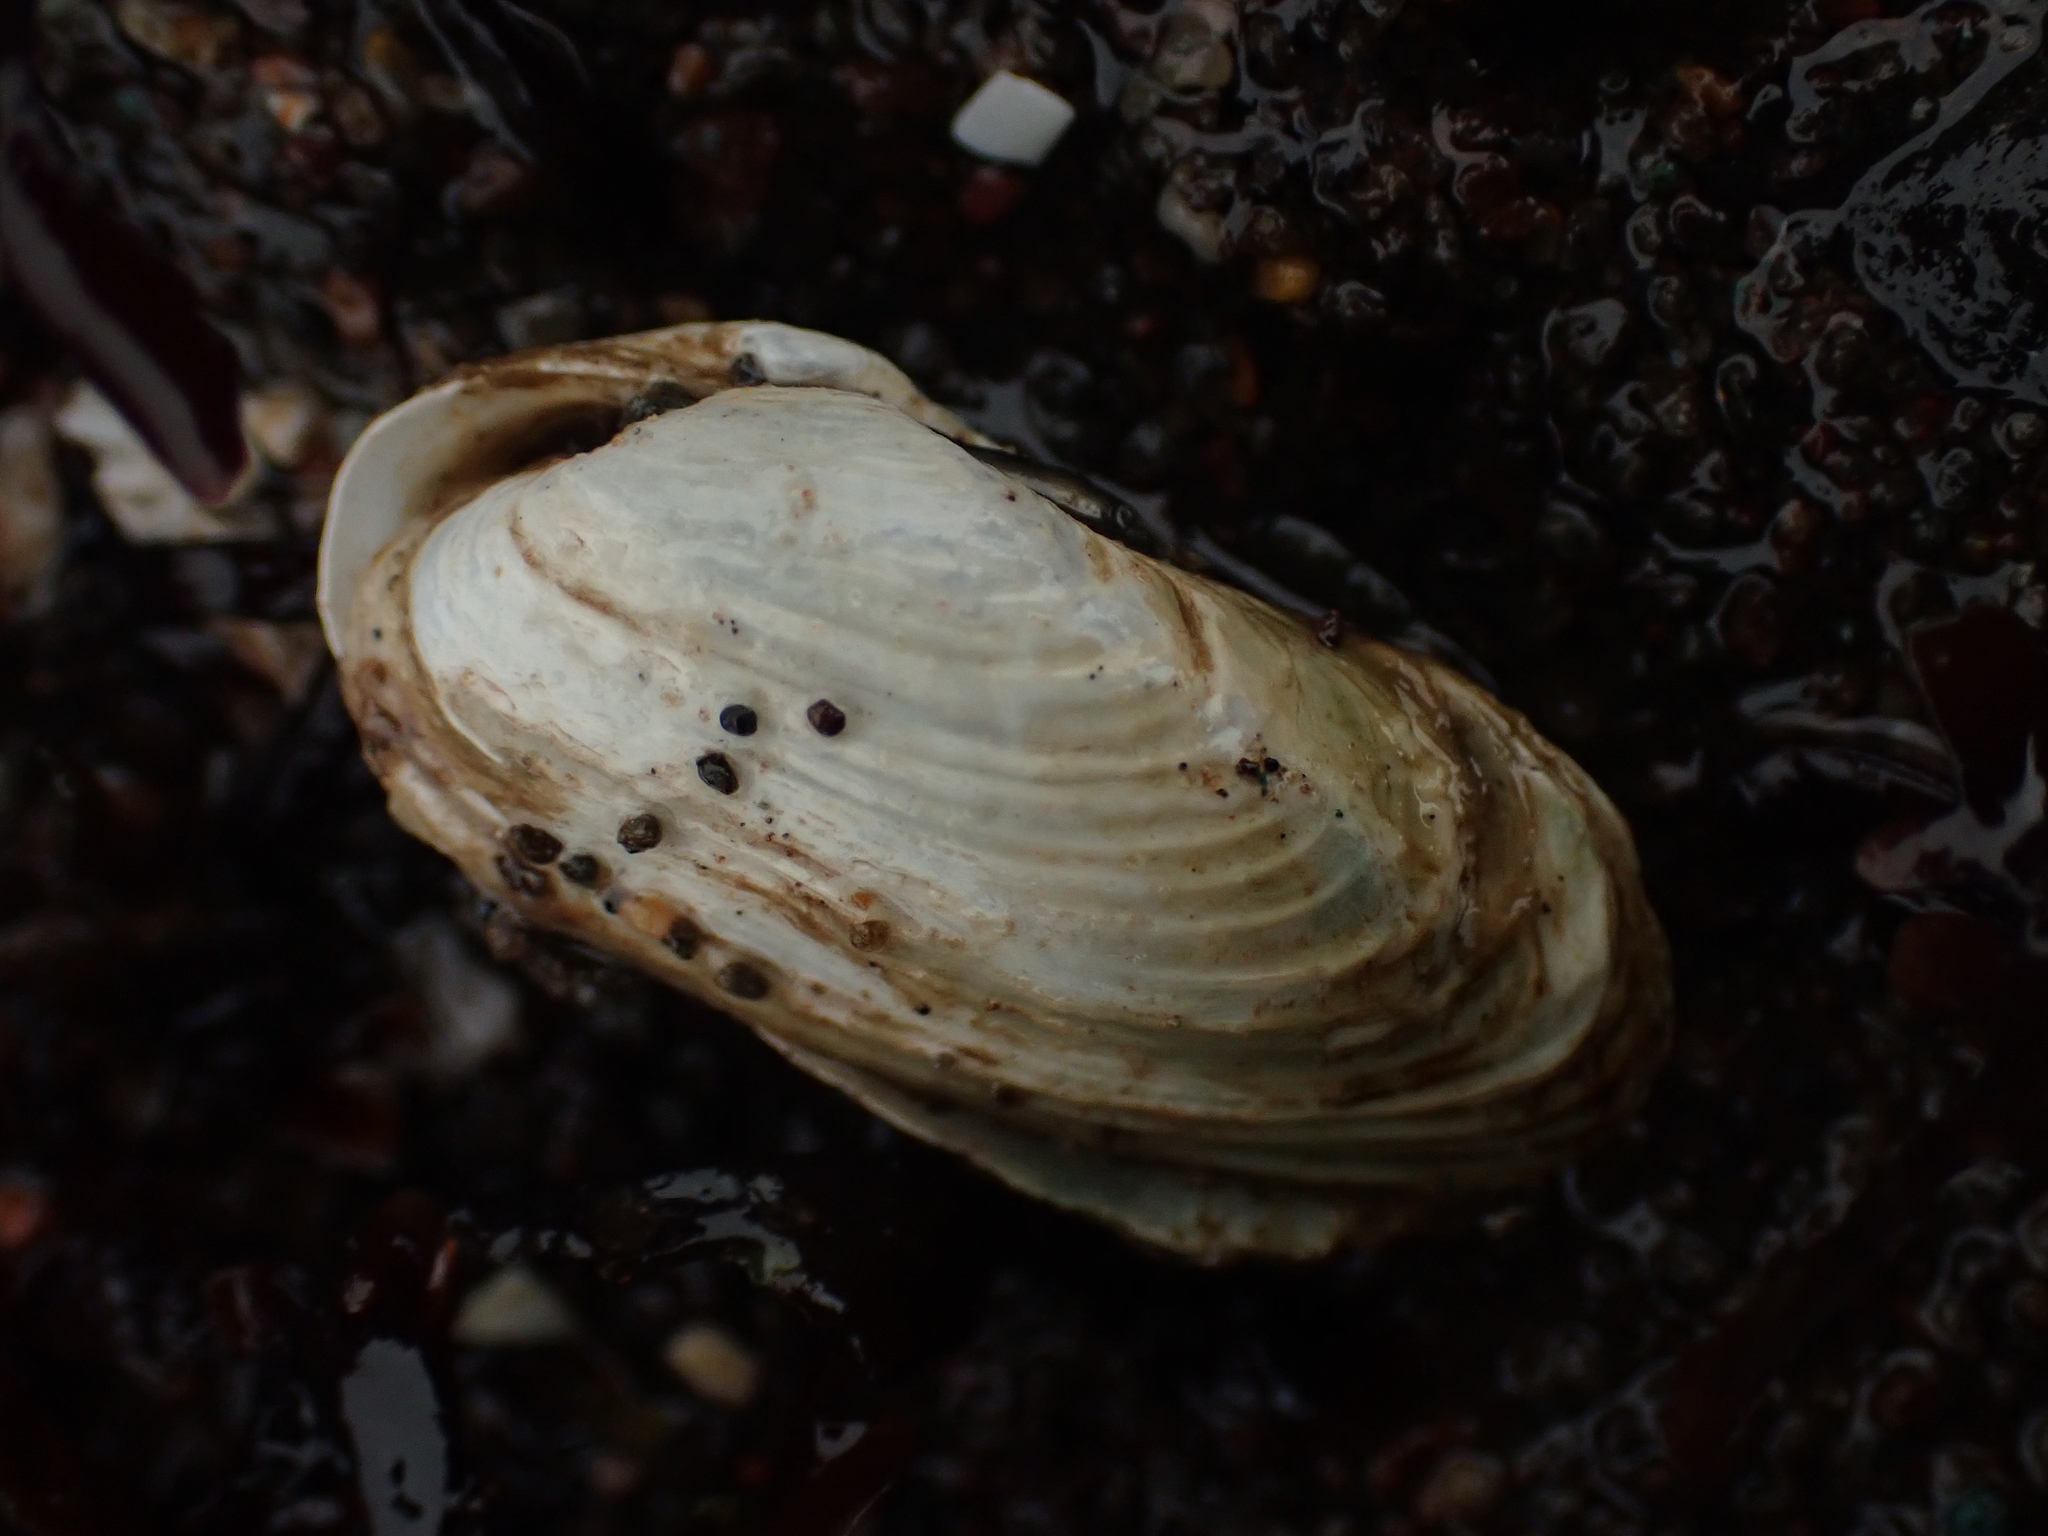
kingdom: Animalia
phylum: Mollusca
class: Bivalvia
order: Adapedonta
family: Hiatellidae
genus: Hiatella
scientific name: Hiatella arctica
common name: Arctic hiatella
